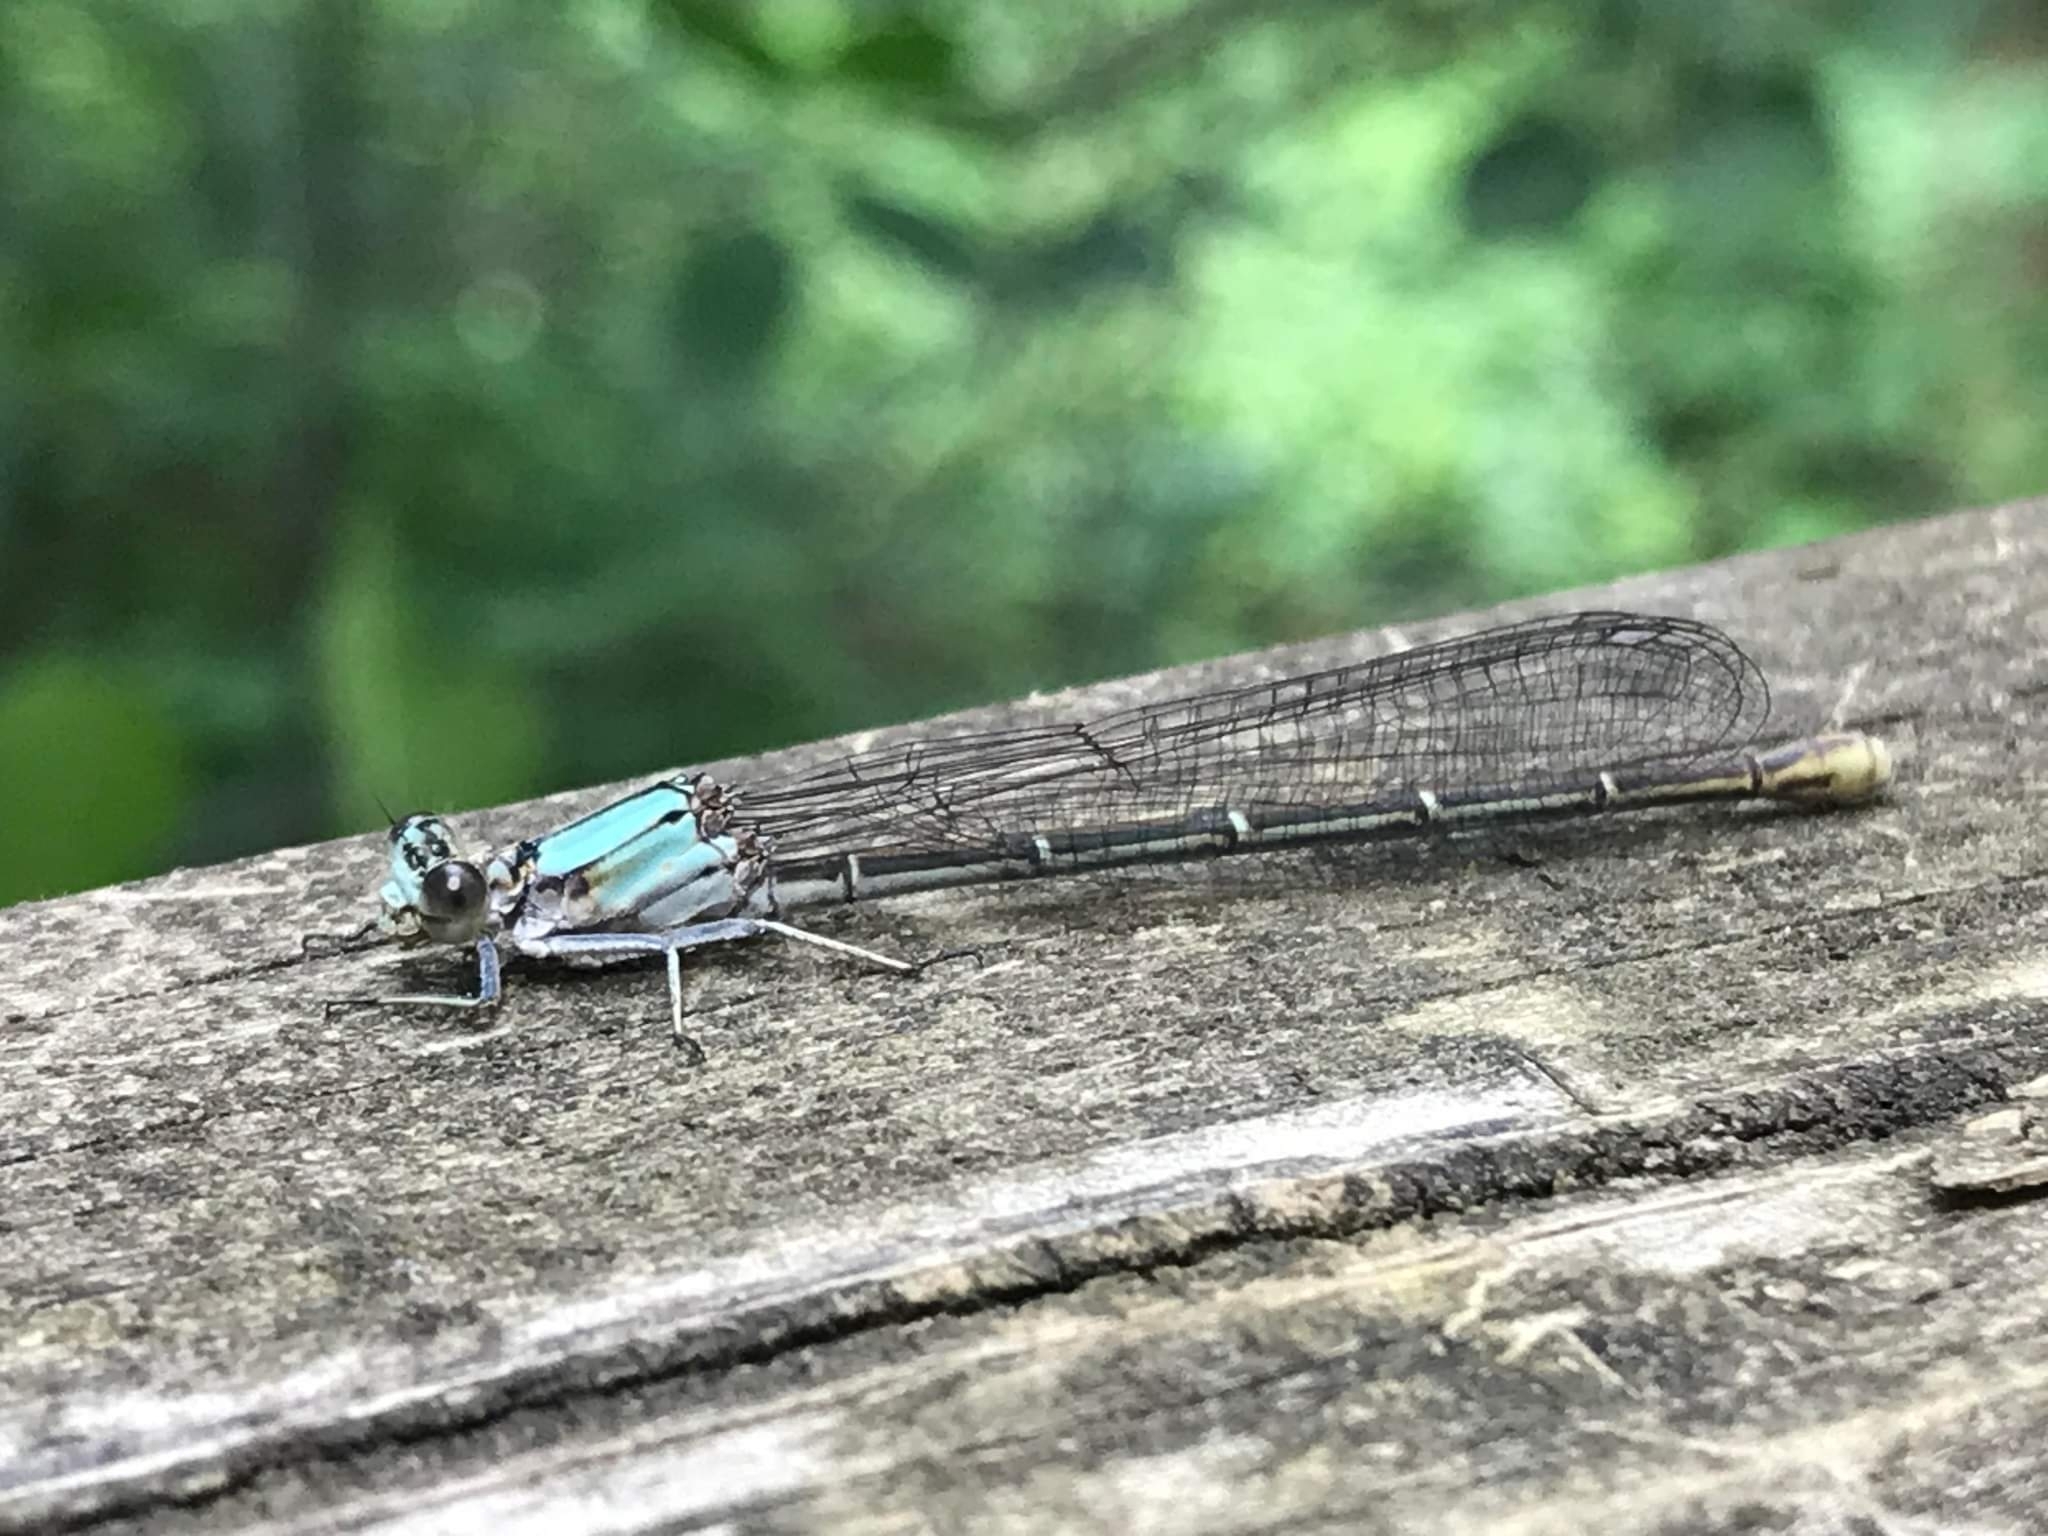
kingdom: Animalia
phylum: Arthropoda
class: Insecta
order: Odonata
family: Coenagrionidae
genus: Argia
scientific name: Argia moesta
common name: Powdered dancer
